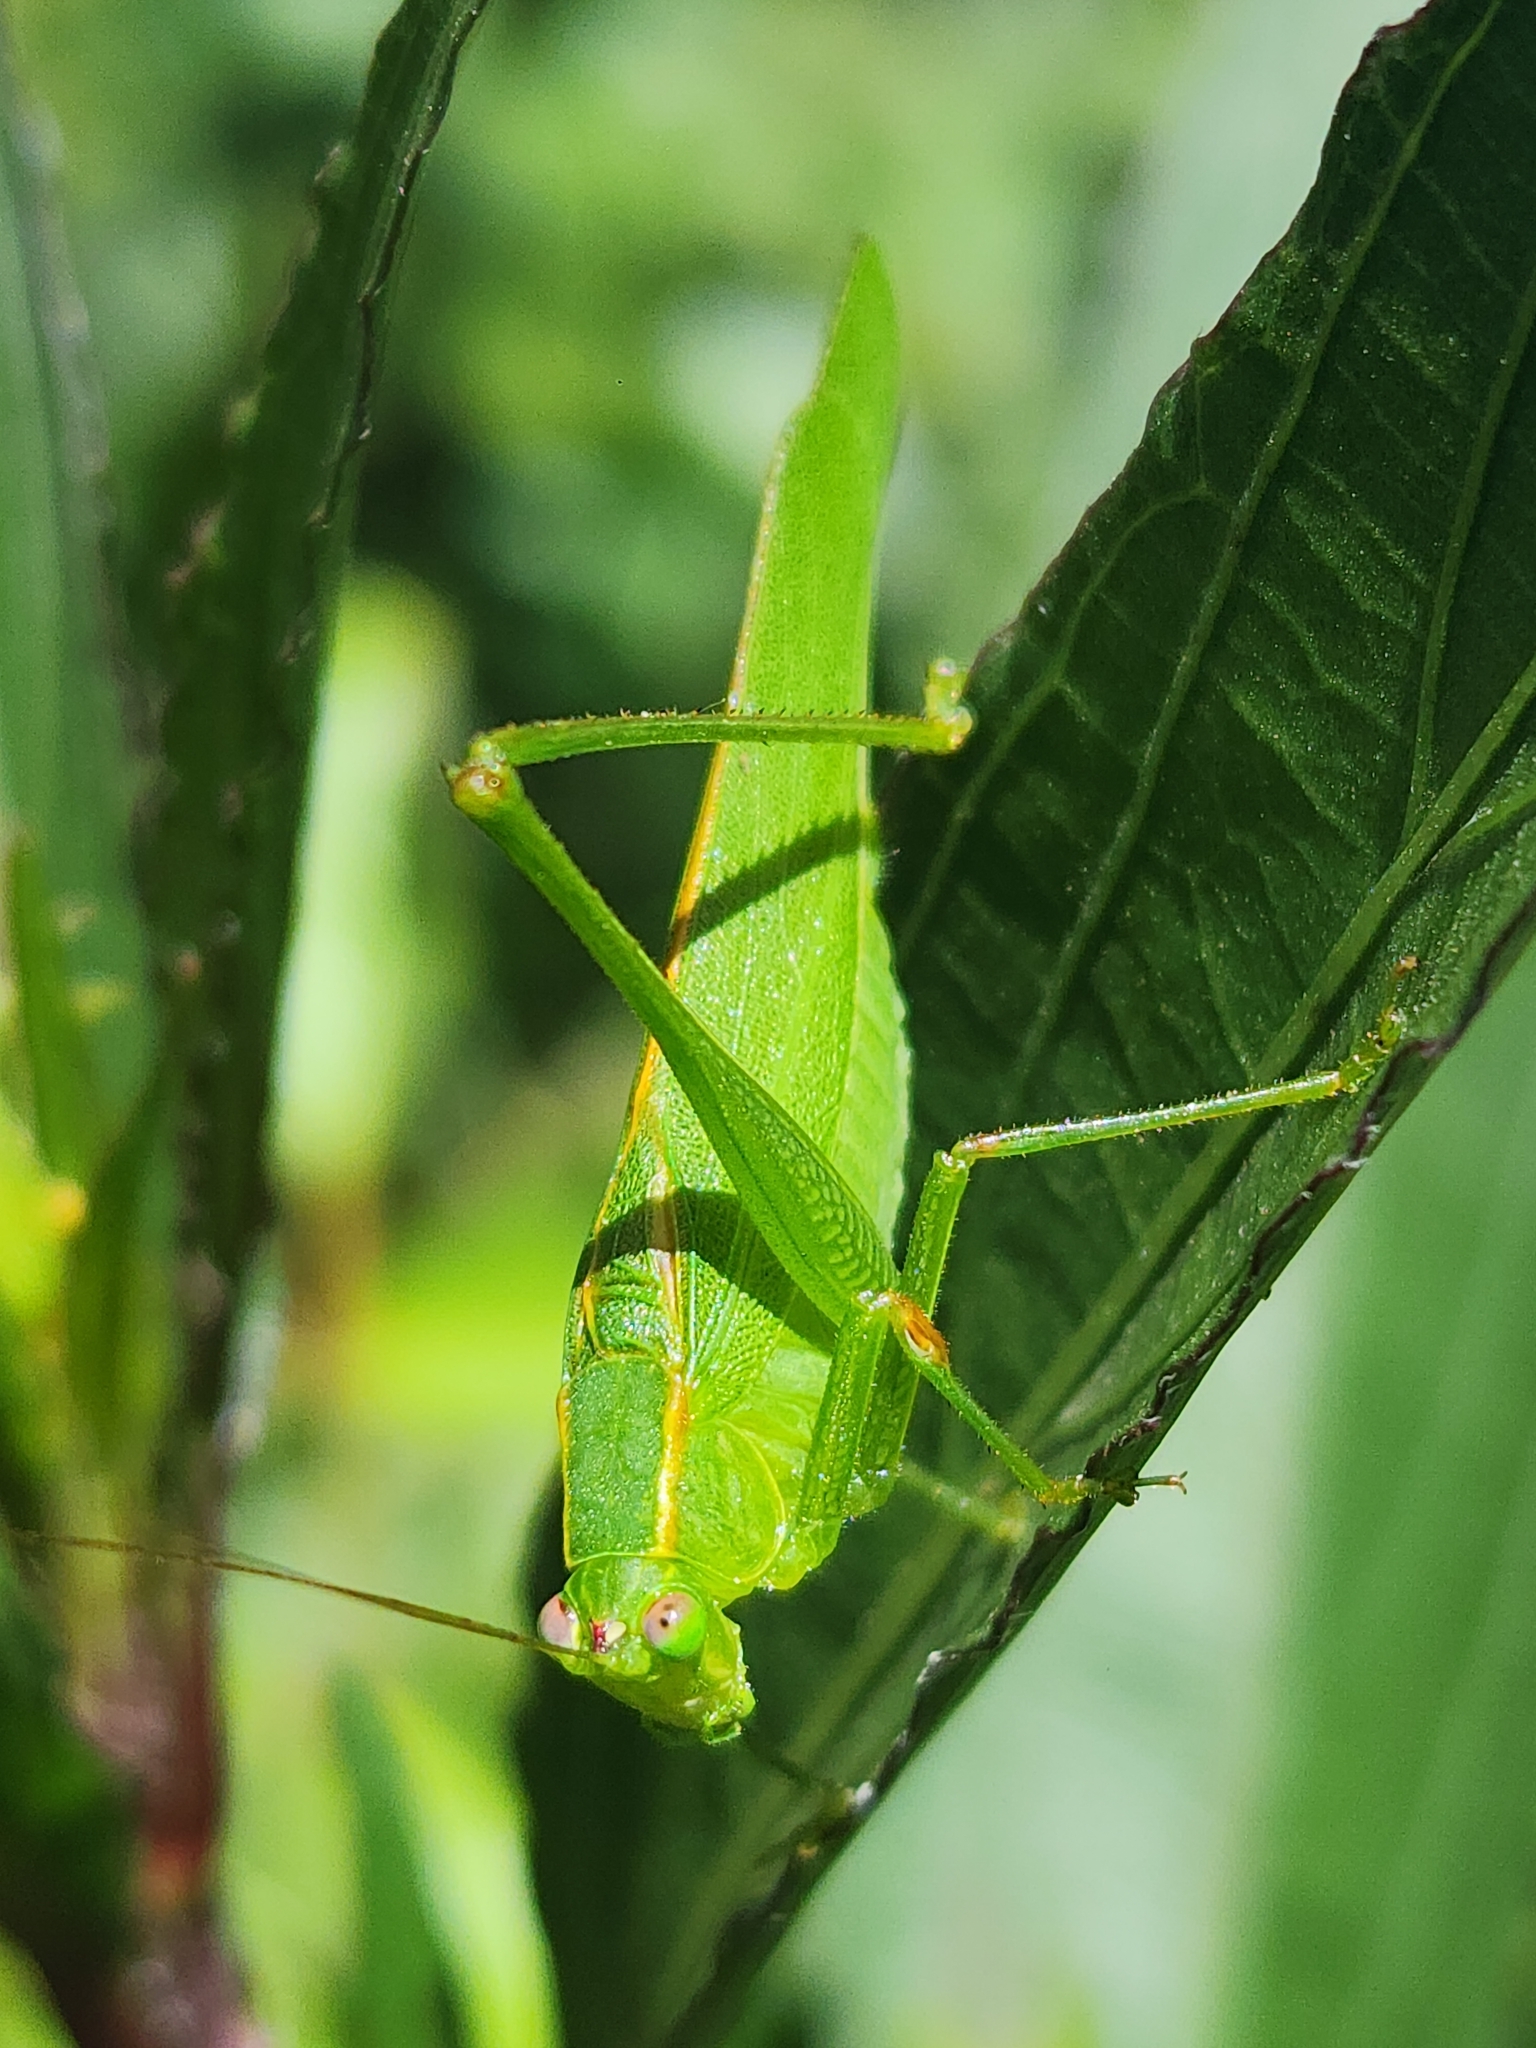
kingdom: Animalia
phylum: Arthropoda
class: Insecta
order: Orthoptera
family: Tettigoniidae
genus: Ligocatinus
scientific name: Ligocatinus spinatus
